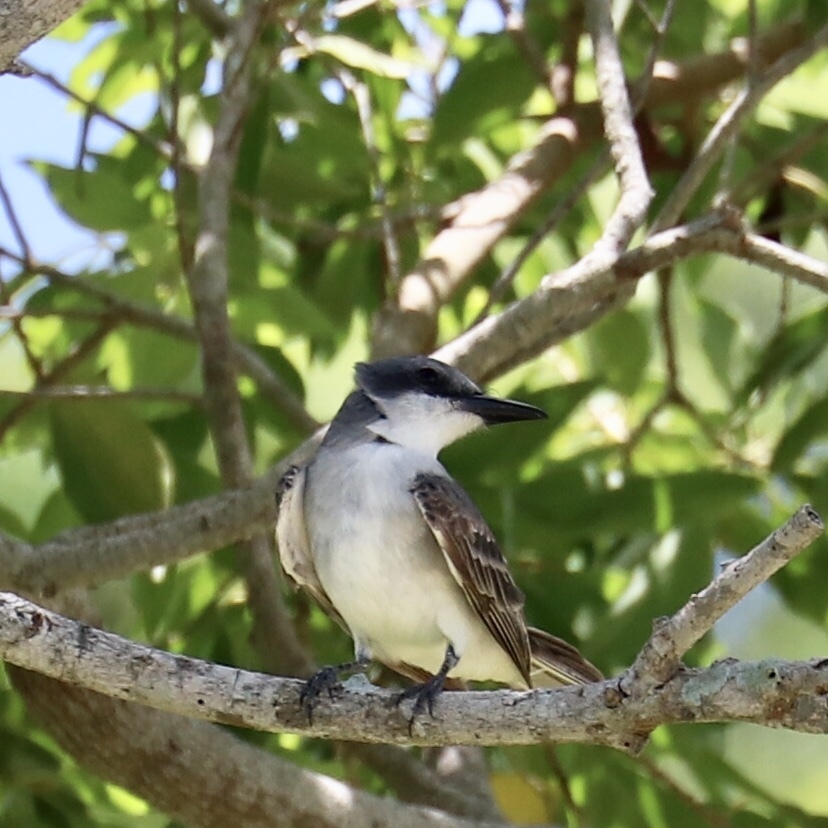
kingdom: Animalia
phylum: Chordata
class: Aves
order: Passeriformes
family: Tyrannidae
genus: Tyrannus
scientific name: Tyrannus dominicensis
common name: Gray kingbird
